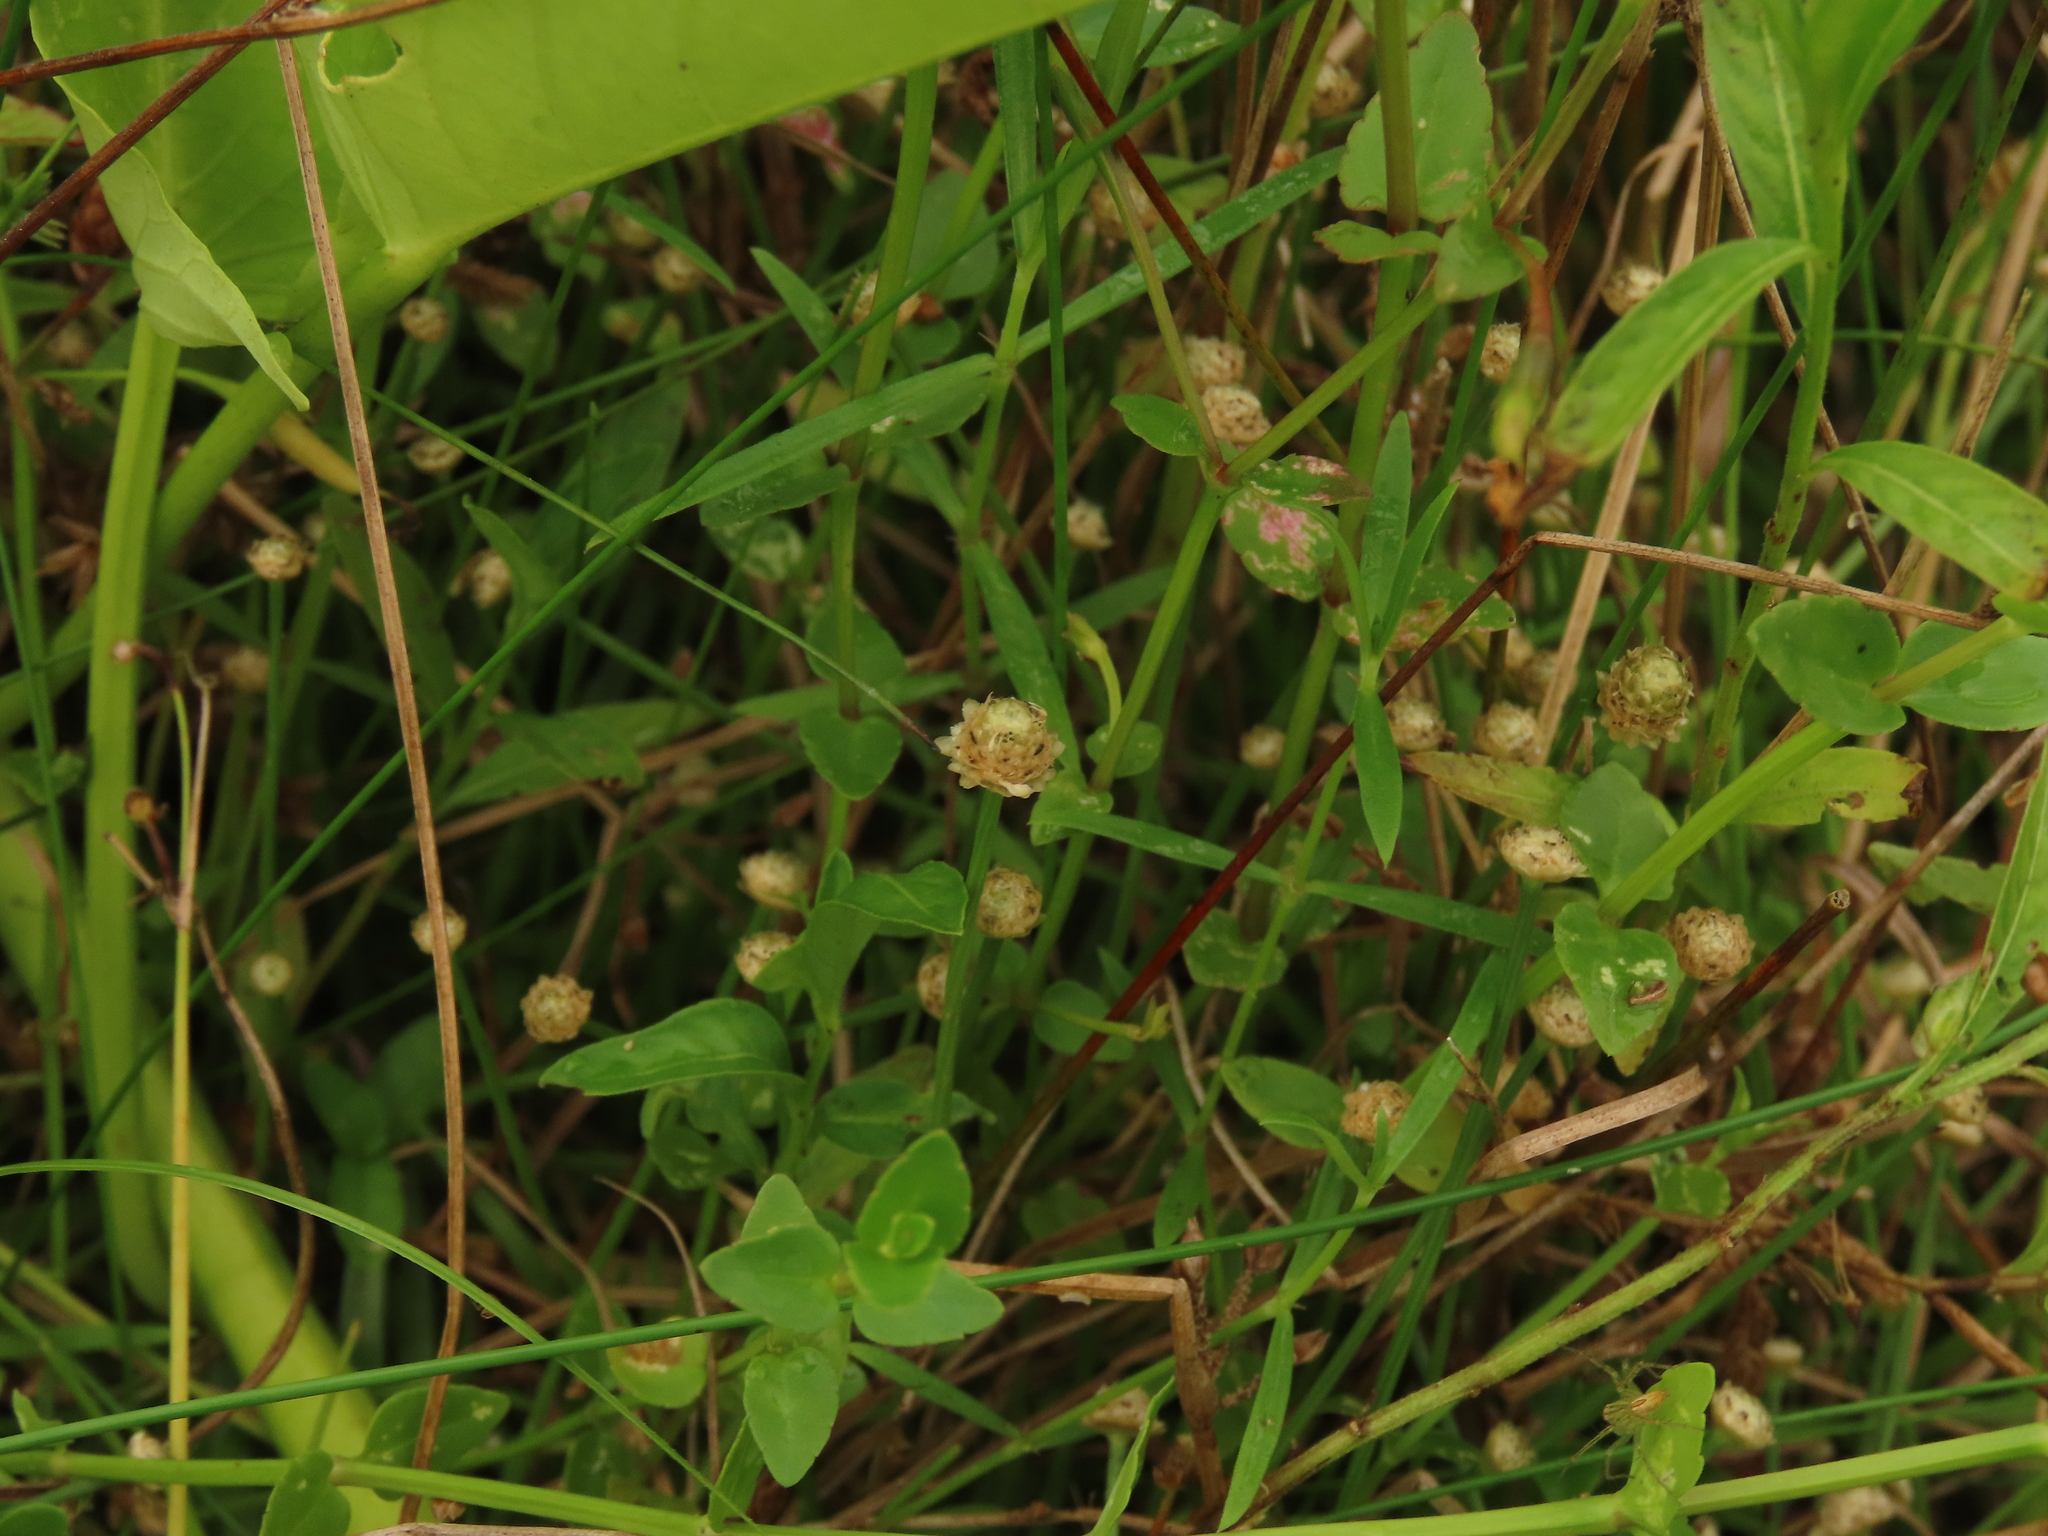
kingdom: Plantae
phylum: Tracheophyta
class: Liliopsida
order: Poales
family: Eriocaulaceae
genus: Eriocaulon
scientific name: Eriocaulon truncatum
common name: Short pipe-wort
